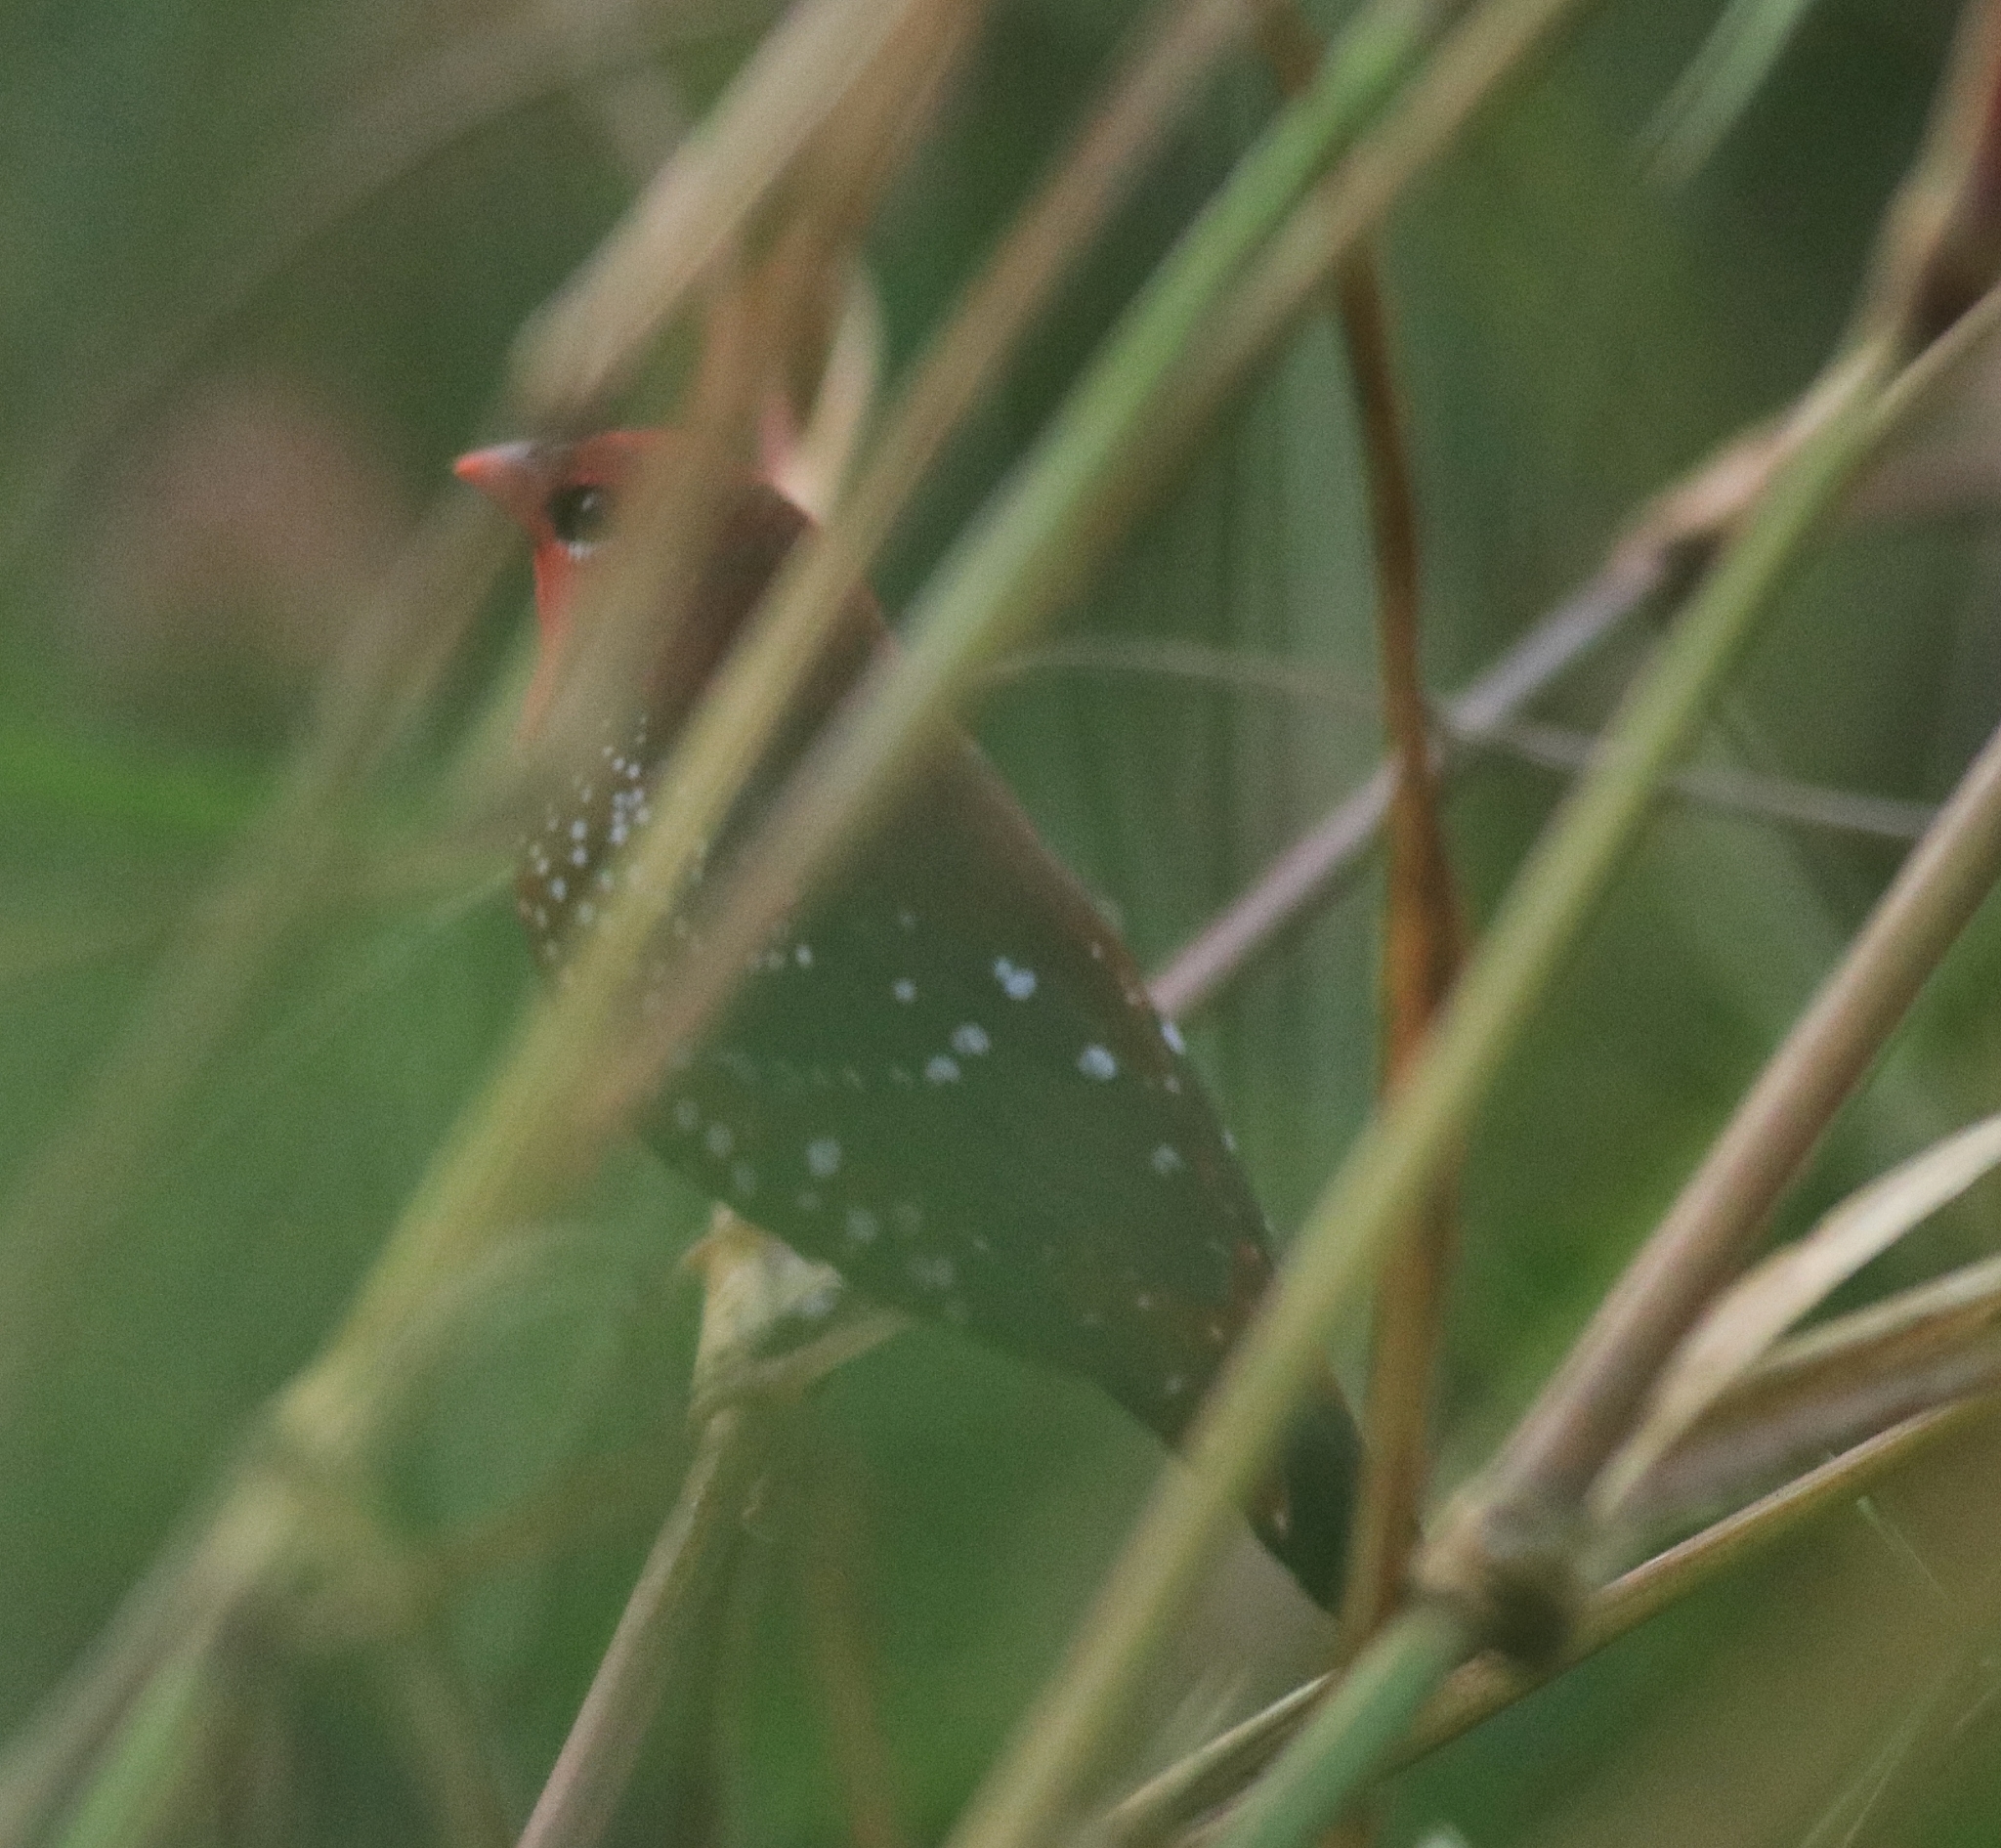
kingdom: Animalia
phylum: Chordata
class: Aves
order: Passeriformes
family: Estrildidae
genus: Amandava
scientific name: Amandava amandava
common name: Red avadavat
